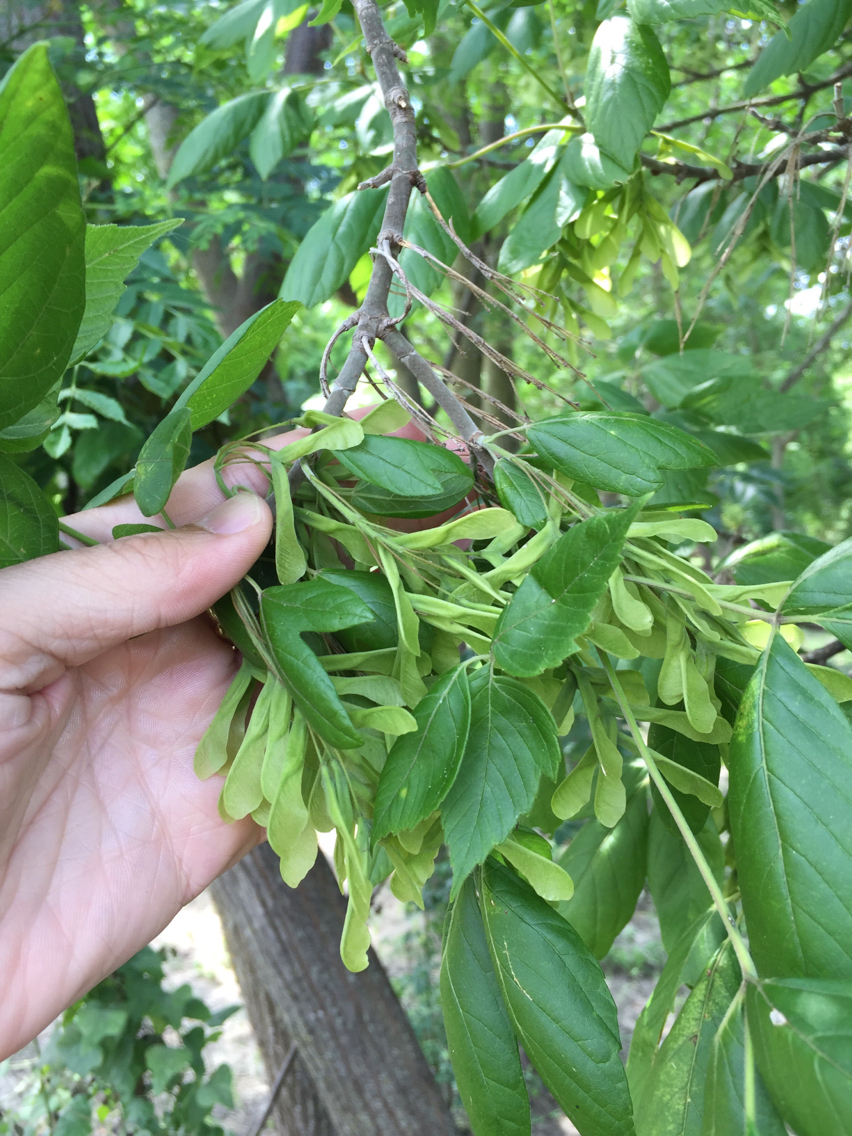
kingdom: Plantae
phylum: Tracheophyta
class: Magnoliopsida
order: Sapindales
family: Sapindaceae
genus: Acer
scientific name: Acer negundo
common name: Ashleaf maple
